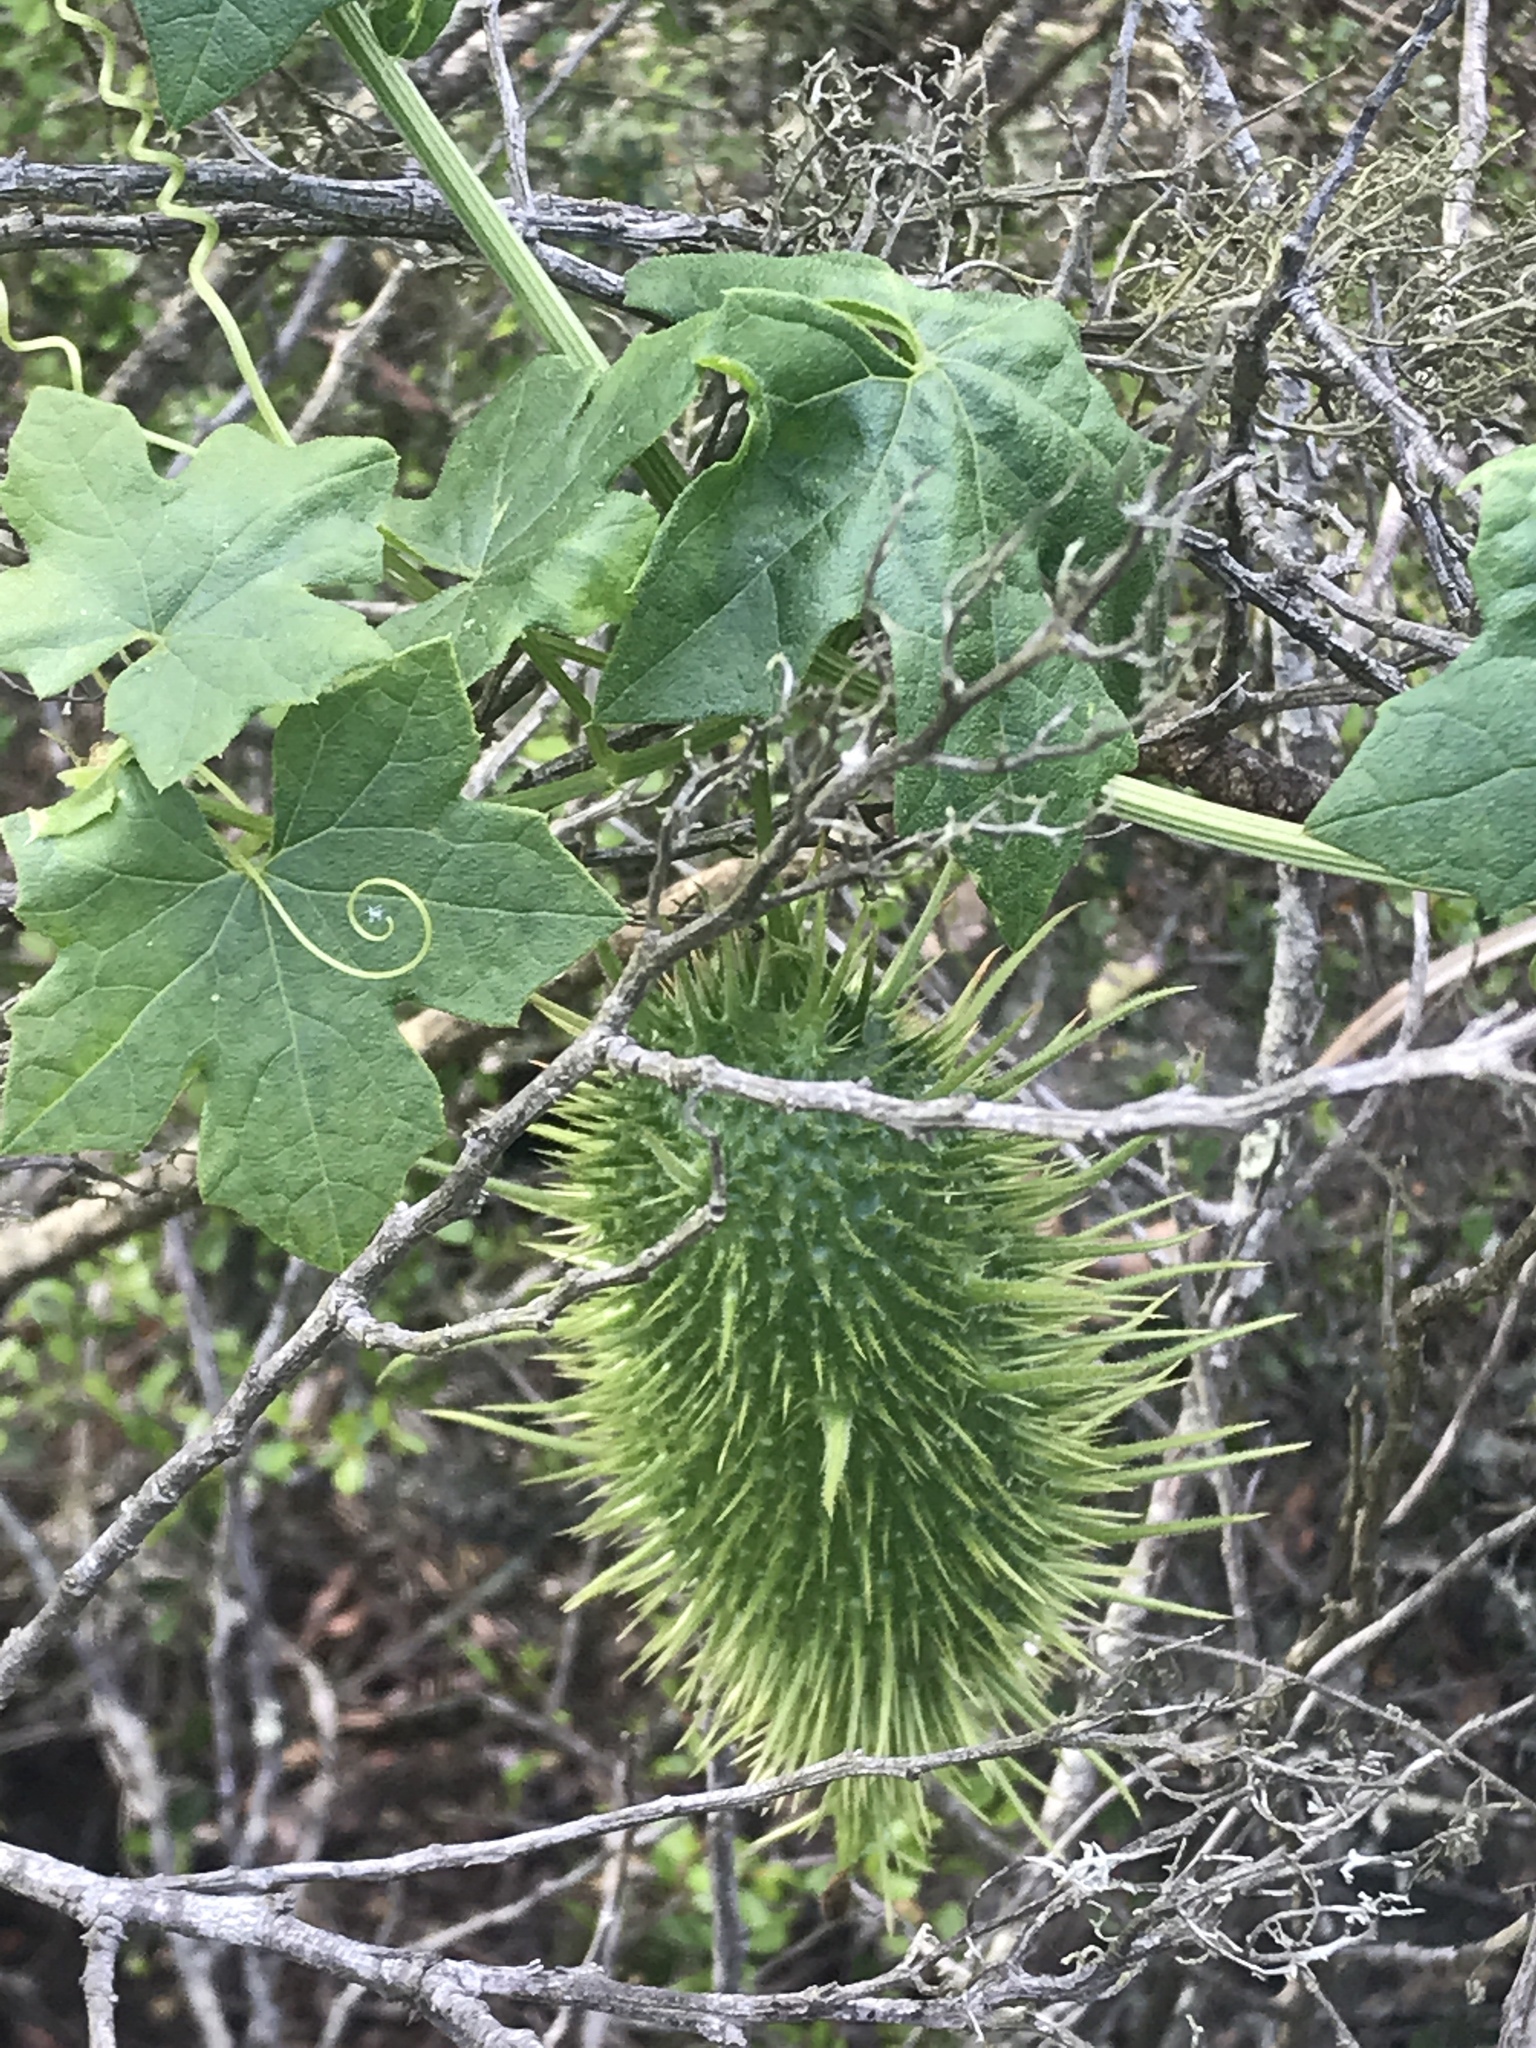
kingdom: Plantae
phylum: Tracheophyta
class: Magnoliopsida
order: Cucurbitales
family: Cucurbitaceae
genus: Marah
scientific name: Marah macrocarpa
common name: Cucamonga manroot
